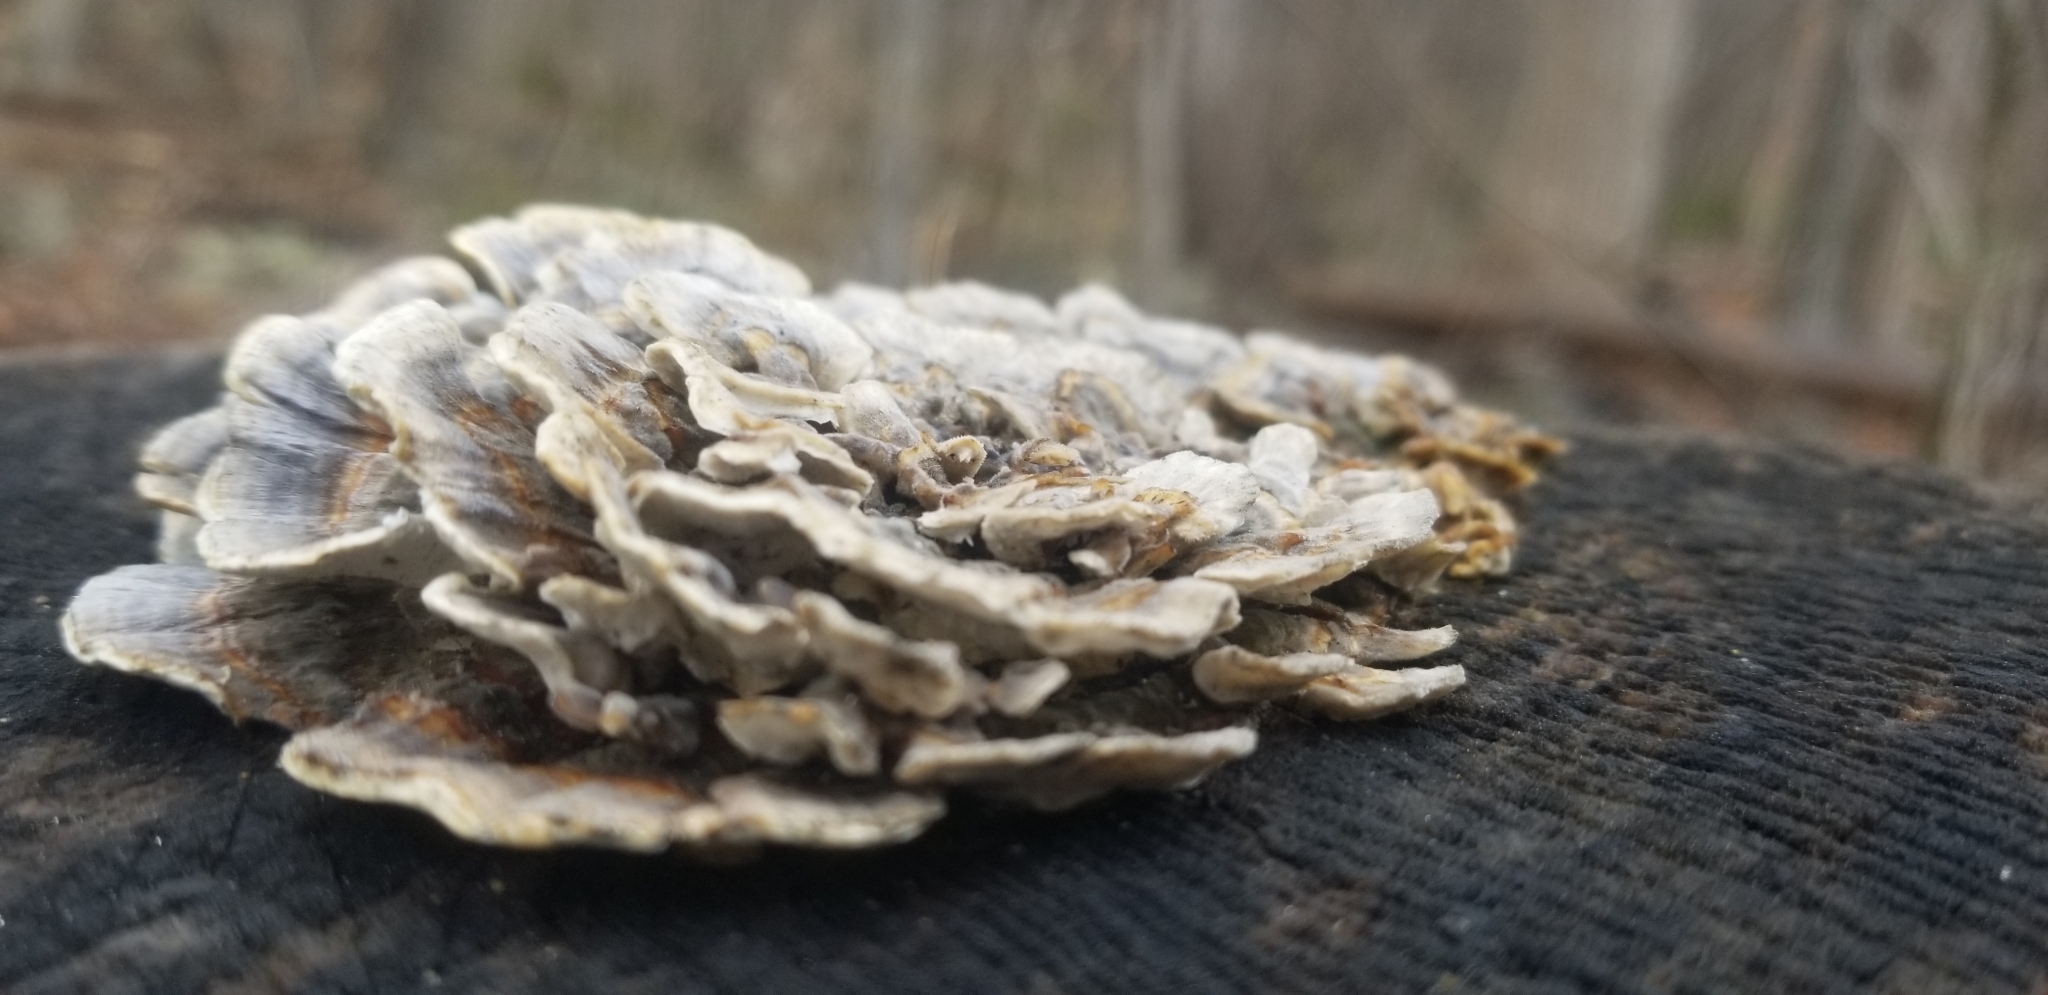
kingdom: Fungi
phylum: Basidiomycota
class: Agaricomycetes
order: Polyporales
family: Polyporaceae
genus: Trametes
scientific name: Trametes versicolor
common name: Turkeytail
